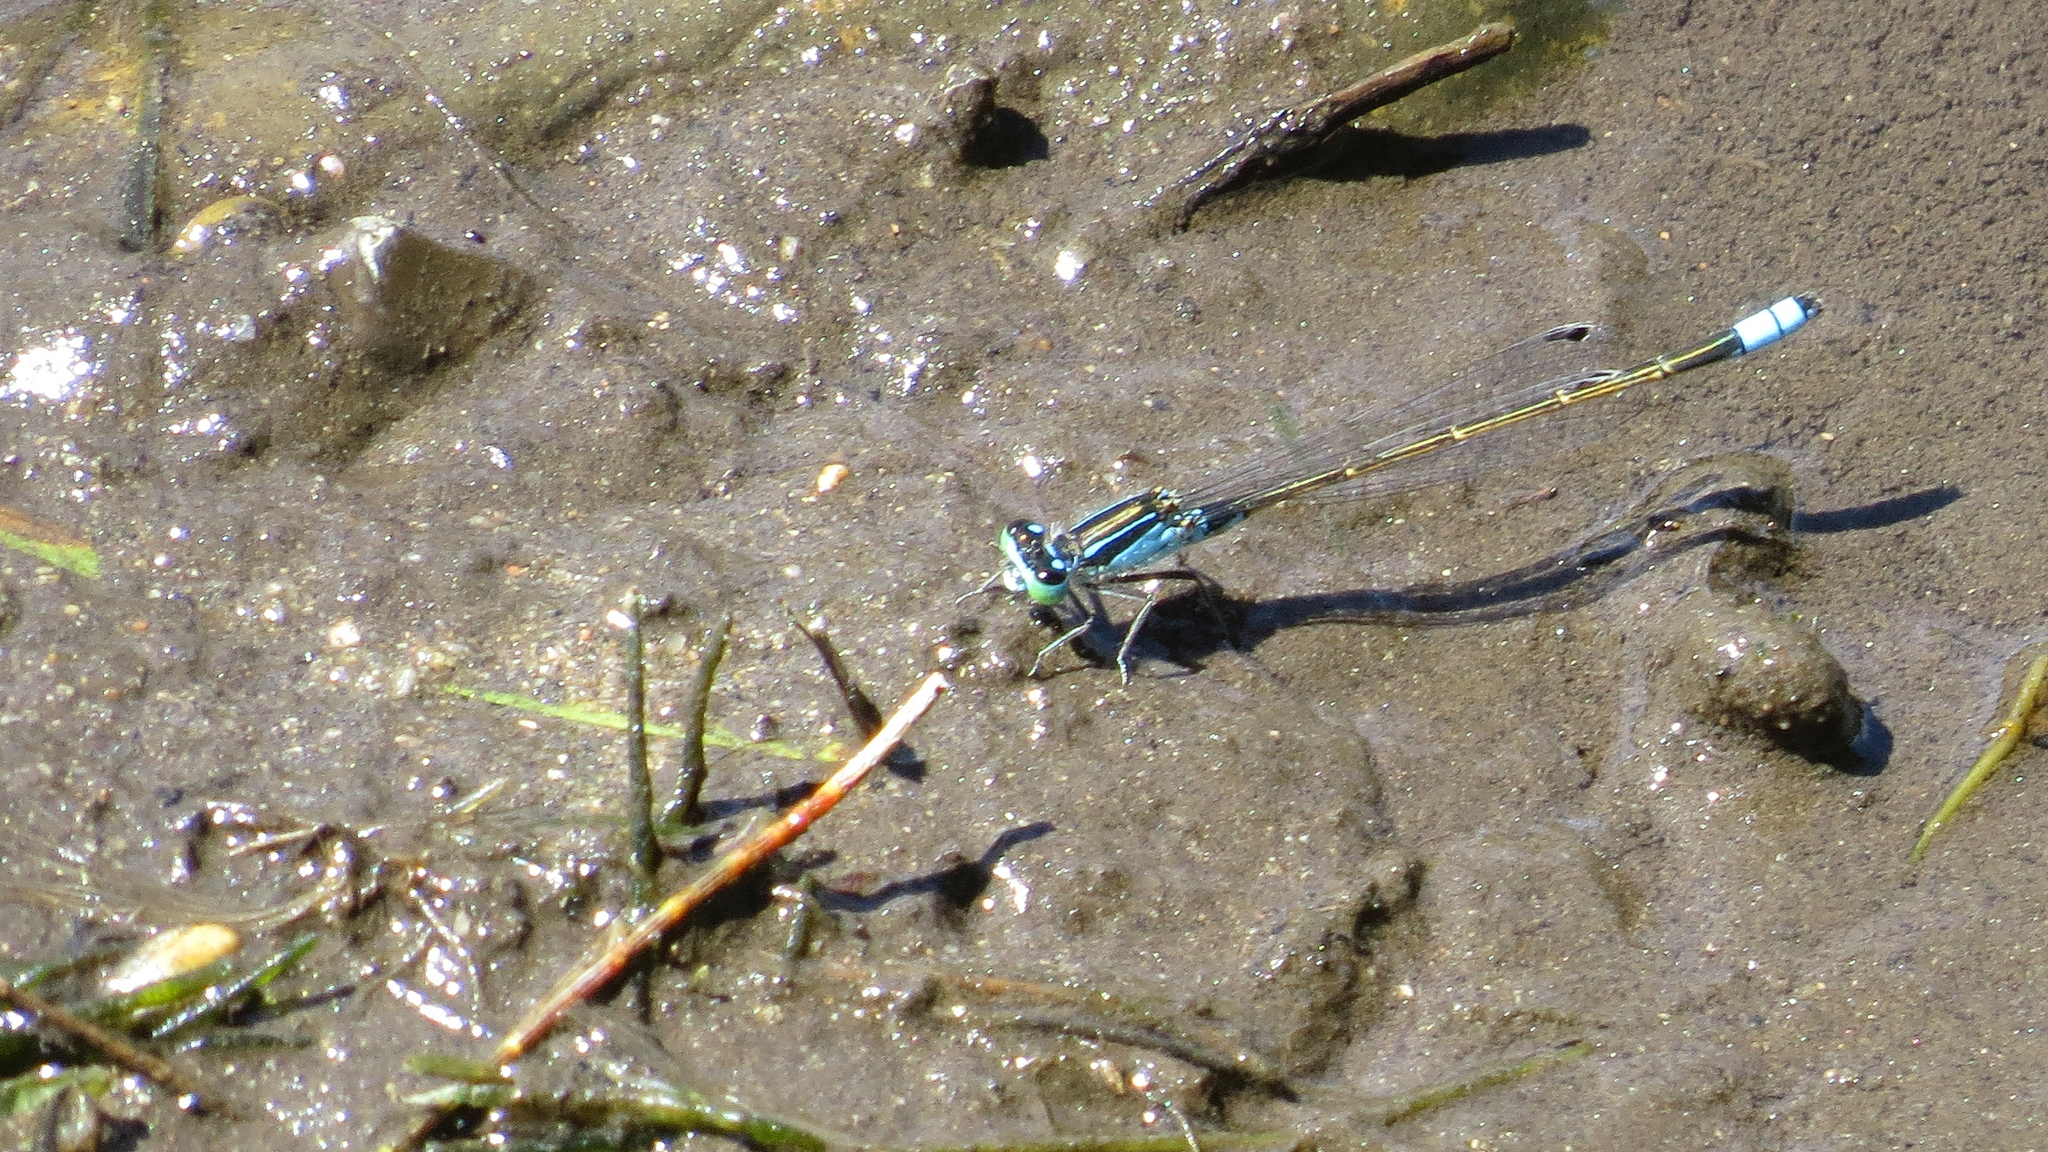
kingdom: Animalia
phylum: Arthropoda
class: Insecta
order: Odonata
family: Coenagrionidae
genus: Ischnura
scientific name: Ischnura heterosticta
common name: Common bluetail
